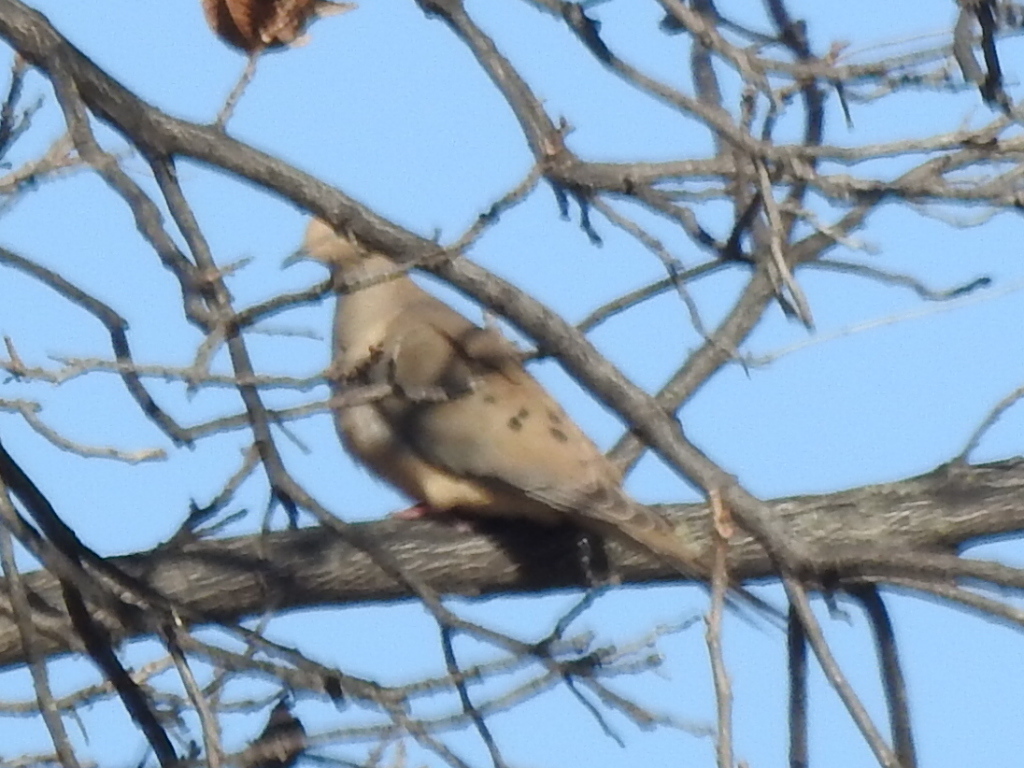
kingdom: Animalia
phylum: Chordata
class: Aves
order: Columbiformes
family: Columbidae
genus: Zenaida
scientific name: Zenaida macroura
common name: Mourning dove
